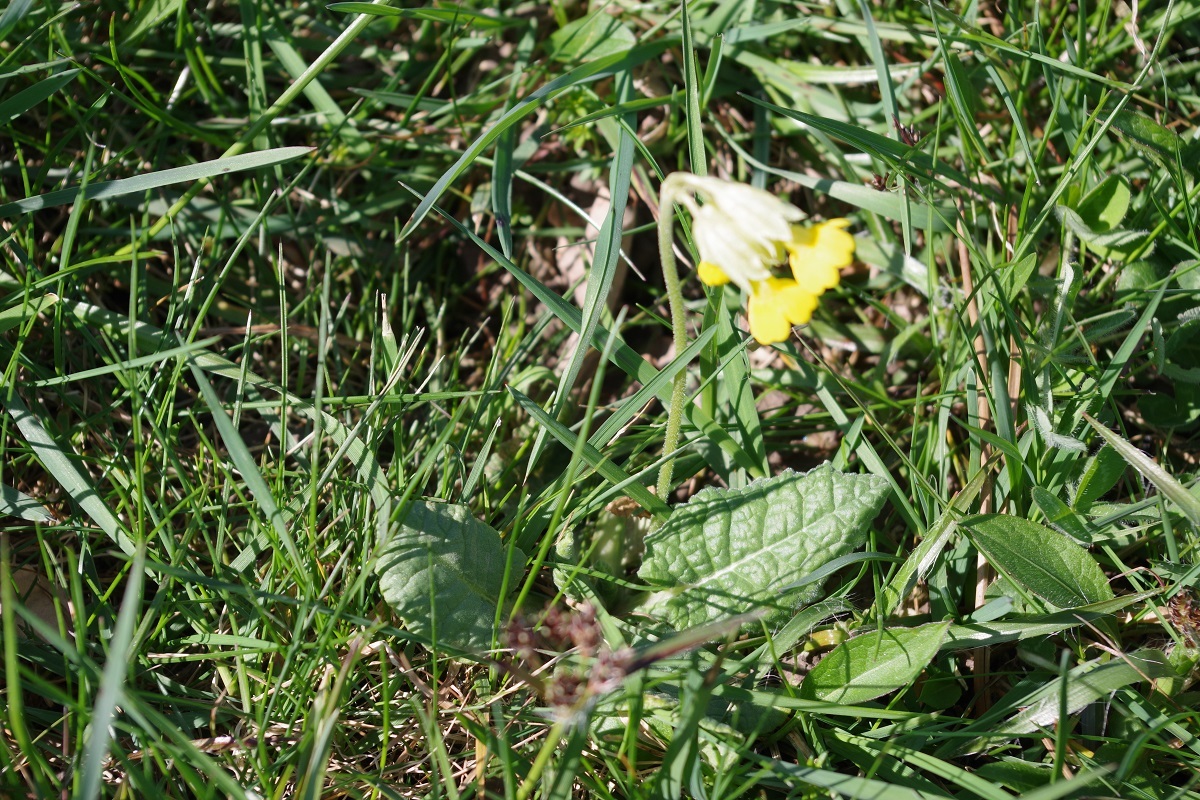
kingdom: Plantae
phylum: Tracheophyta
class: Magnoliopsida
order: Ericales
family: Primulaceae
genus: Primula
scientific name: Primula veris
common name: Cowslip
